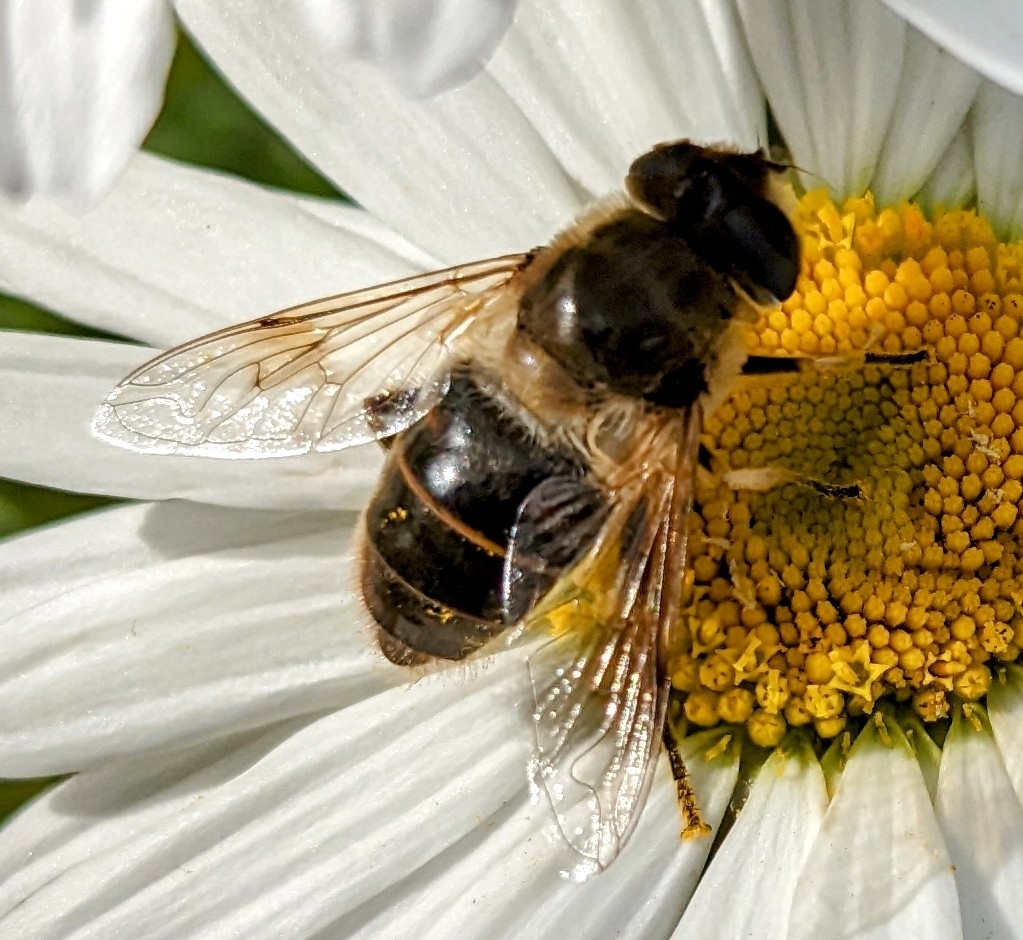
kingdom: Animalia
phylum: Arthropoda
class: Insecta
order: Diptera
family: Syrphidae
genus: Eristalis
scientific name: Eristalis tenax
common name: Drone fly
